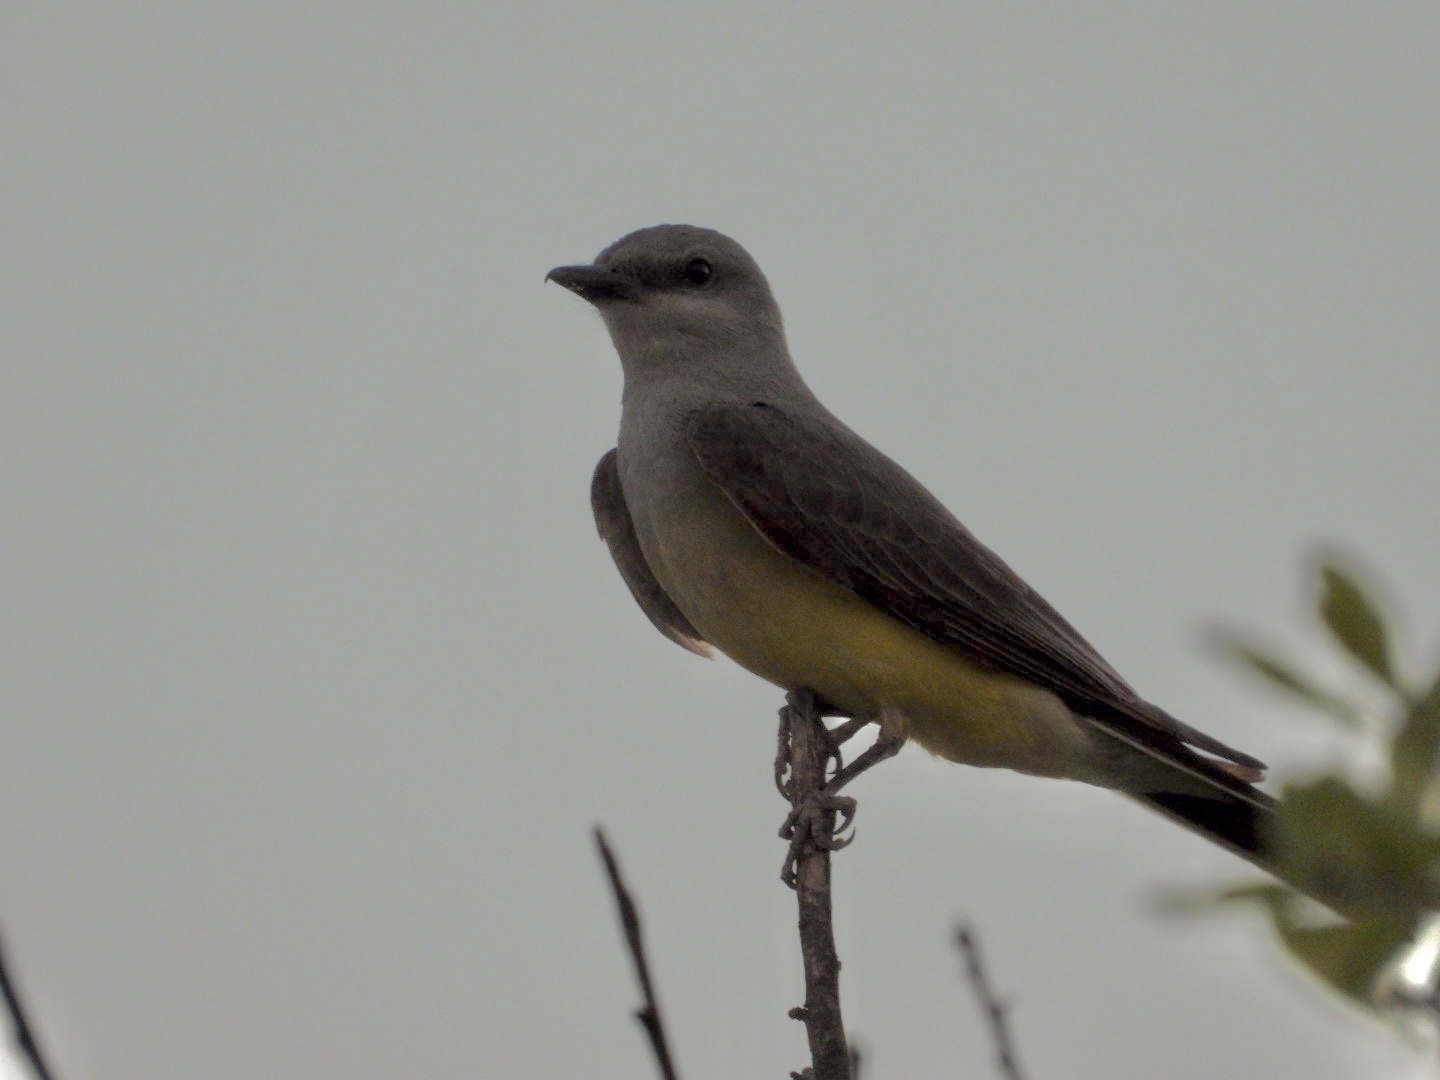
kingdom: Animalia
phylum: Chordata
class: Aves
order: Passeriformes
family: Tyrannidae
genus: Tyrannus
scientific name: Tyrannus verticalis
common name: Western kingbird
